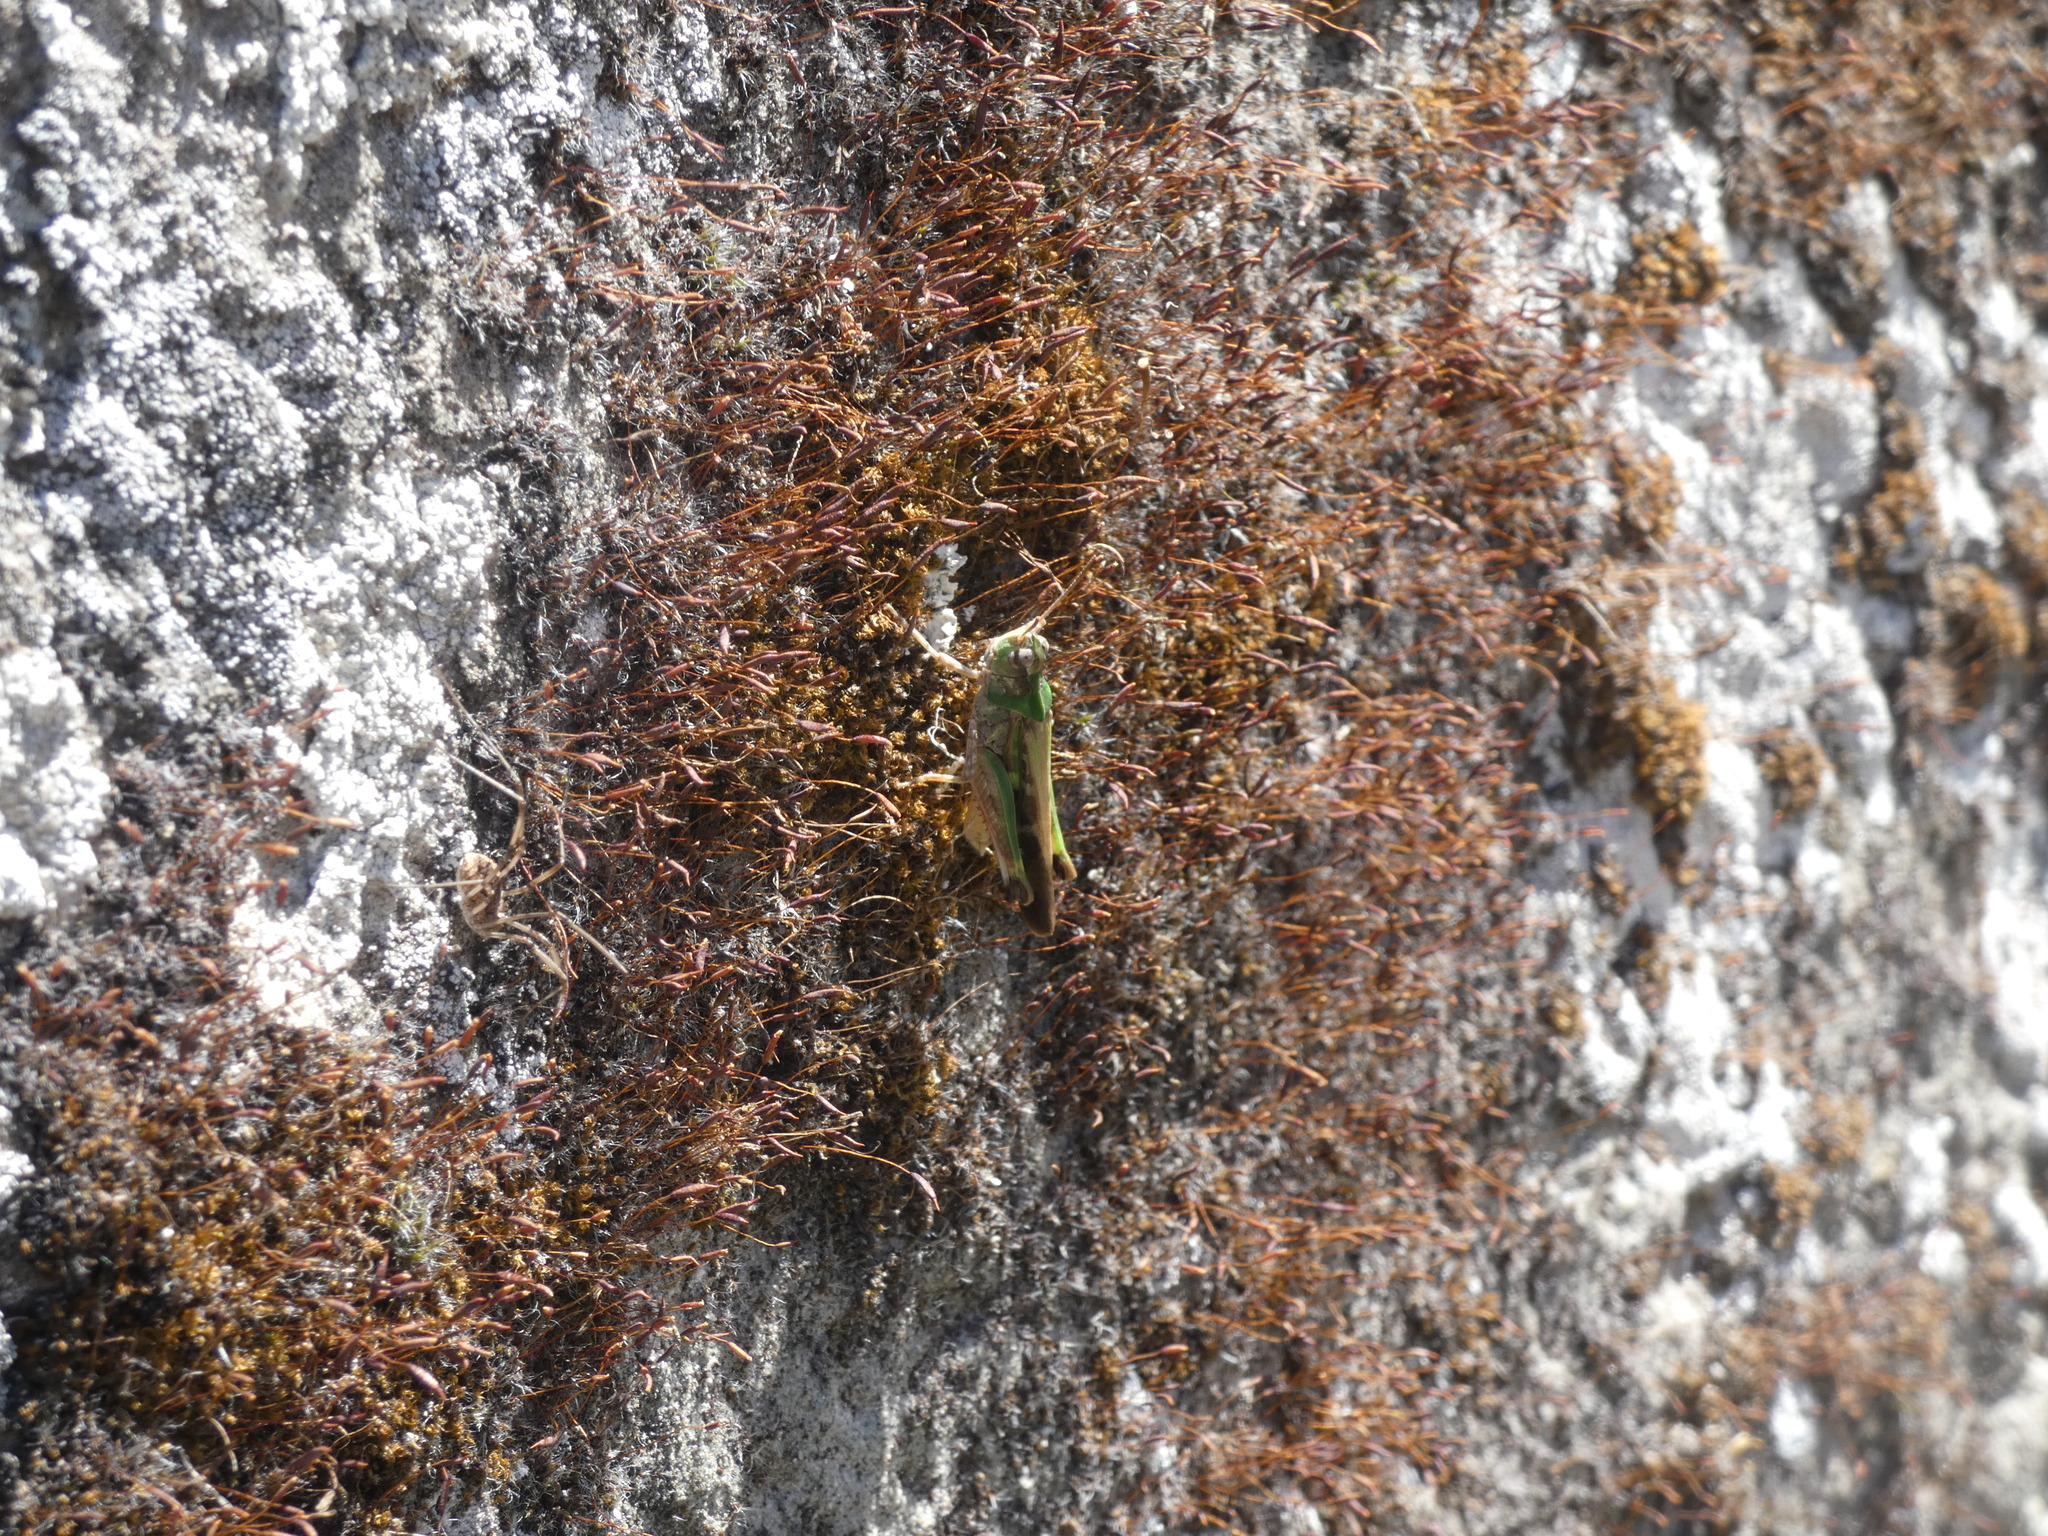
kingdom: Animalia
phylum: Arthropoda
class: Insecta
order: Orthoptera
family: Acrididae
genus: Aiolopus
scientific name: Aiolopus thalassinus
